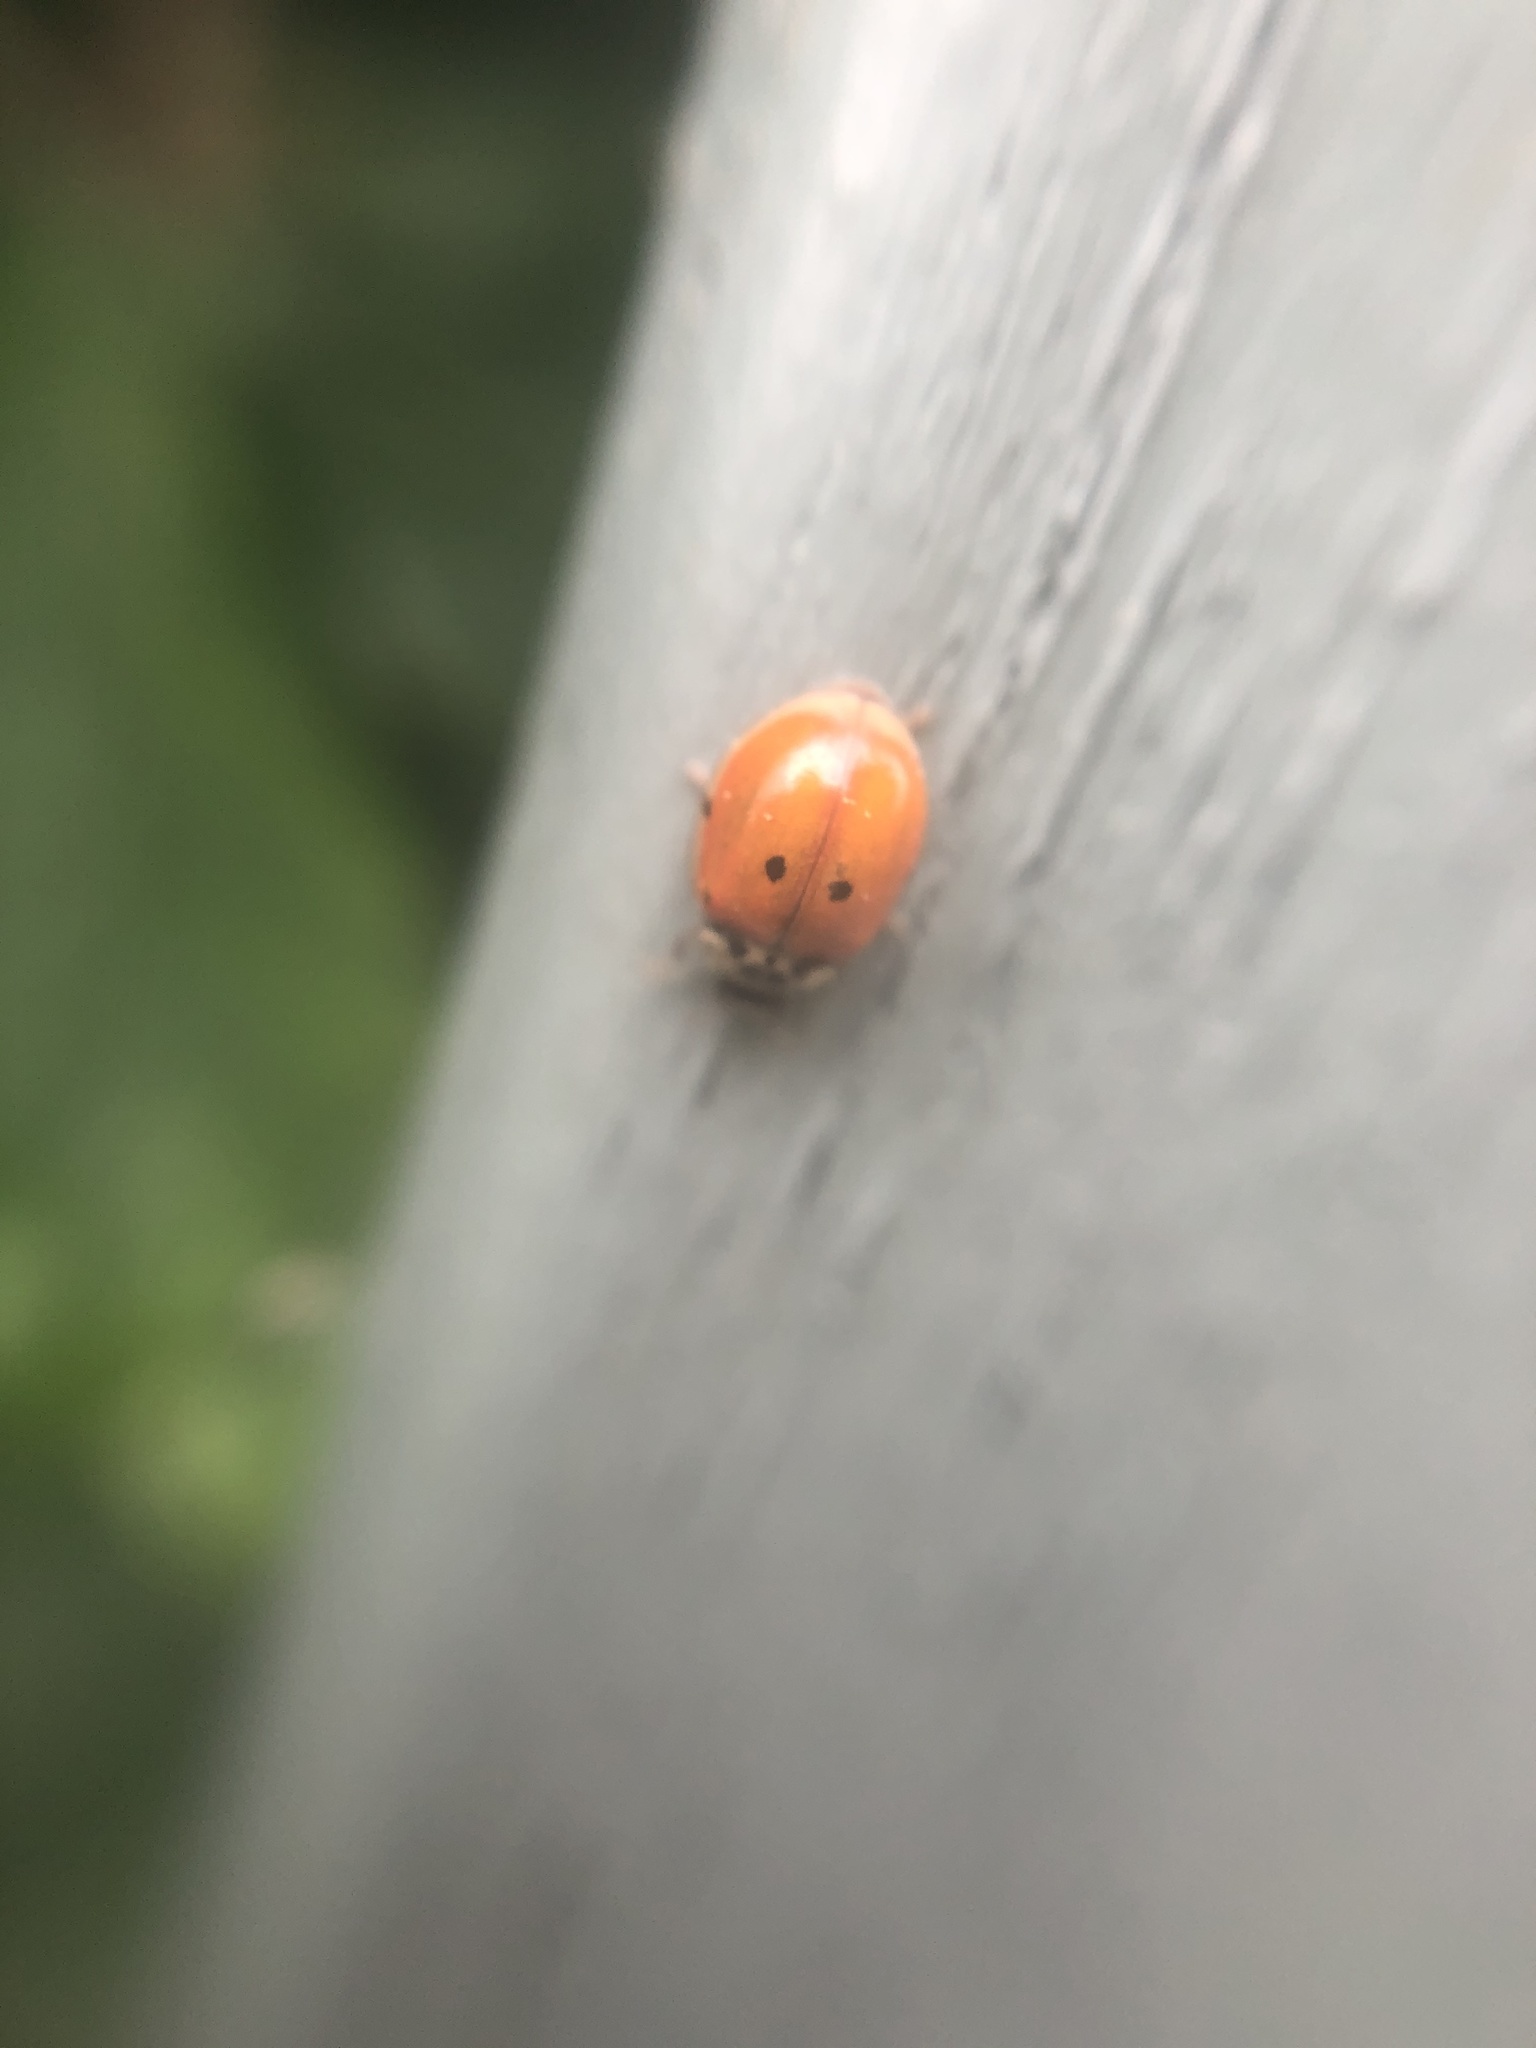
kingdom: Animalia
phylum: Arthropoda
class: Insecta
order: Coleoptera
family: Coccinellidae
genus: Adalia
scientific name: Adalia decempunctata
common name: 10-spot ladybird
